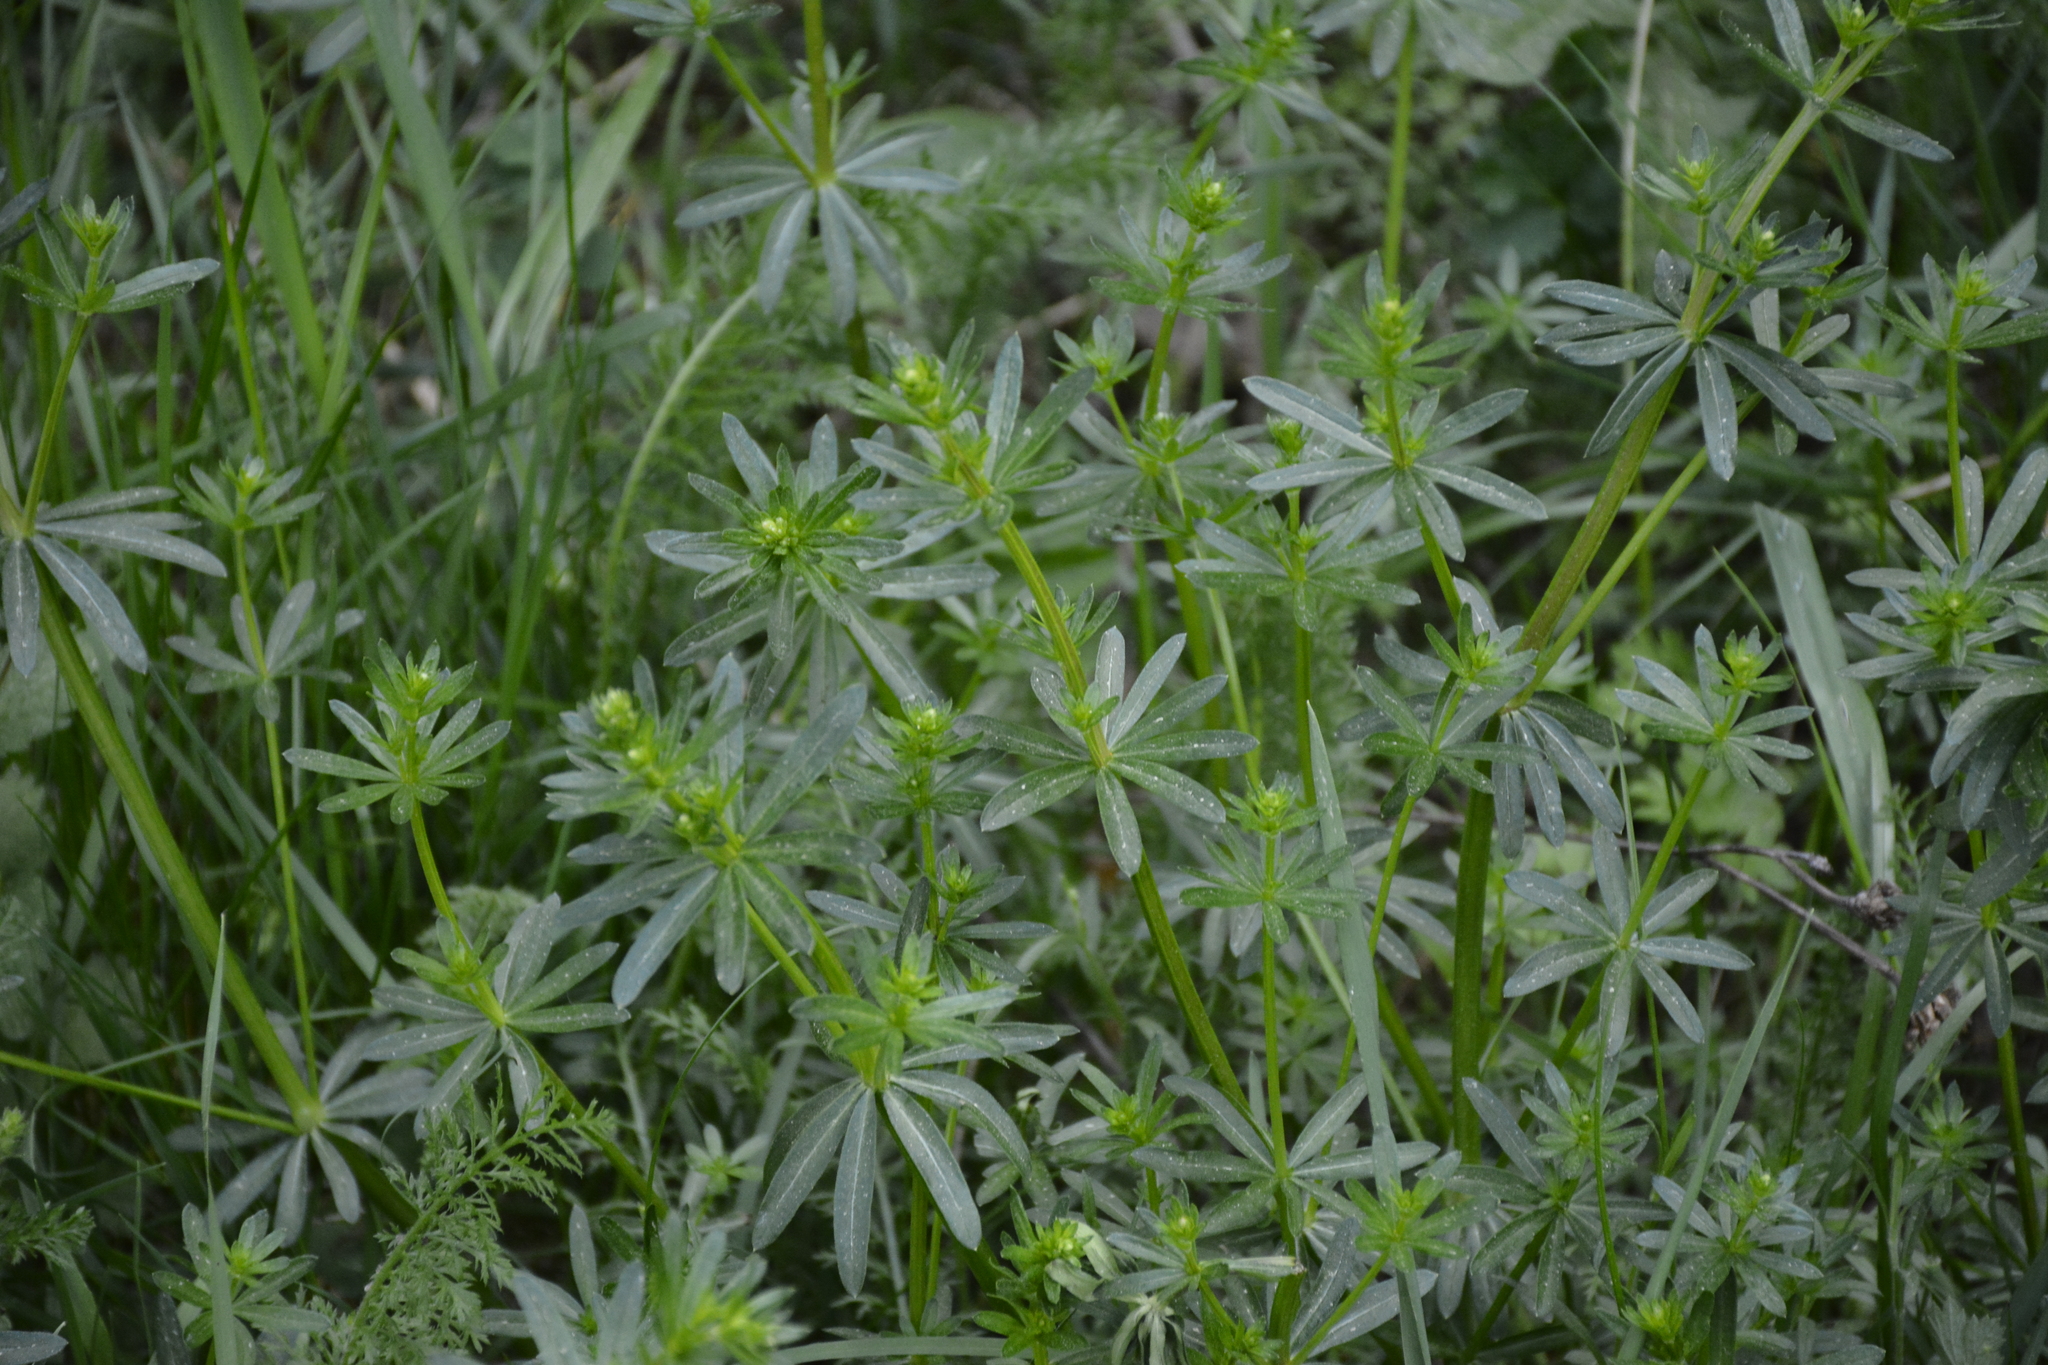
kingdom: Plantae
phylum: Tracheophyta
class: Magnoliopsida
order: Gentianales
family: Rubiaceae
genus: Galium
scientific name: Galium mollugo
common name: Hedge bedstraw
